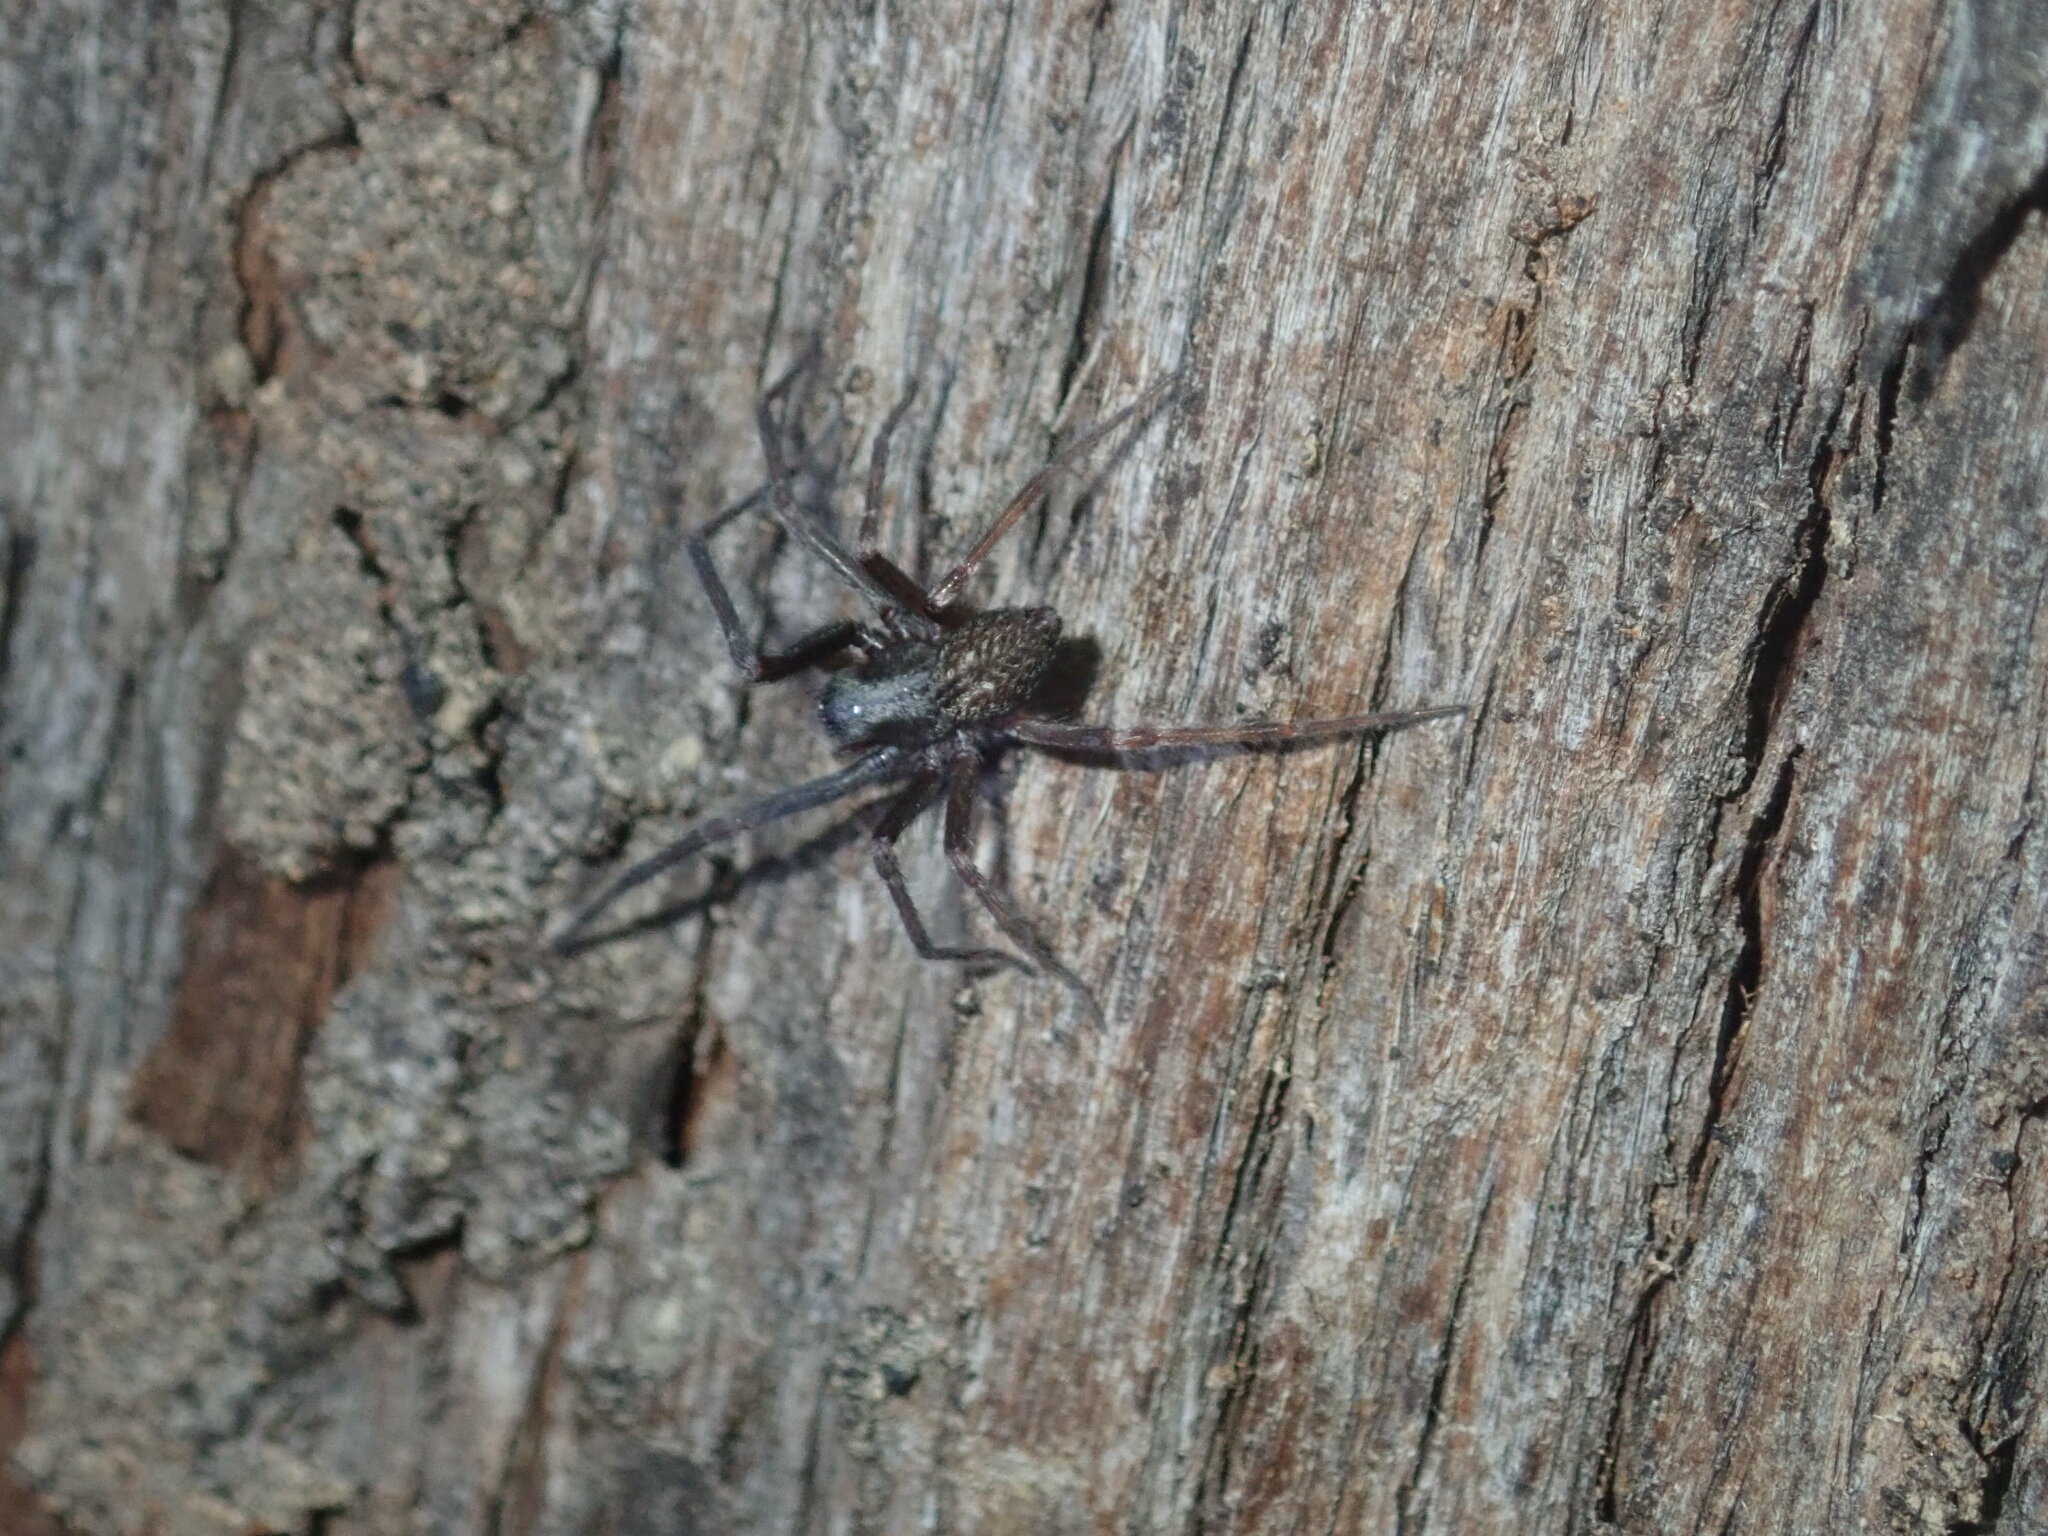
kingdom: Animalia
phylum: Arthropoda
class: Arachnida
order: Araneae
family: Desidae
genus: Badumna
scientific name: Badumna longinqua
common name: Gray house spider
